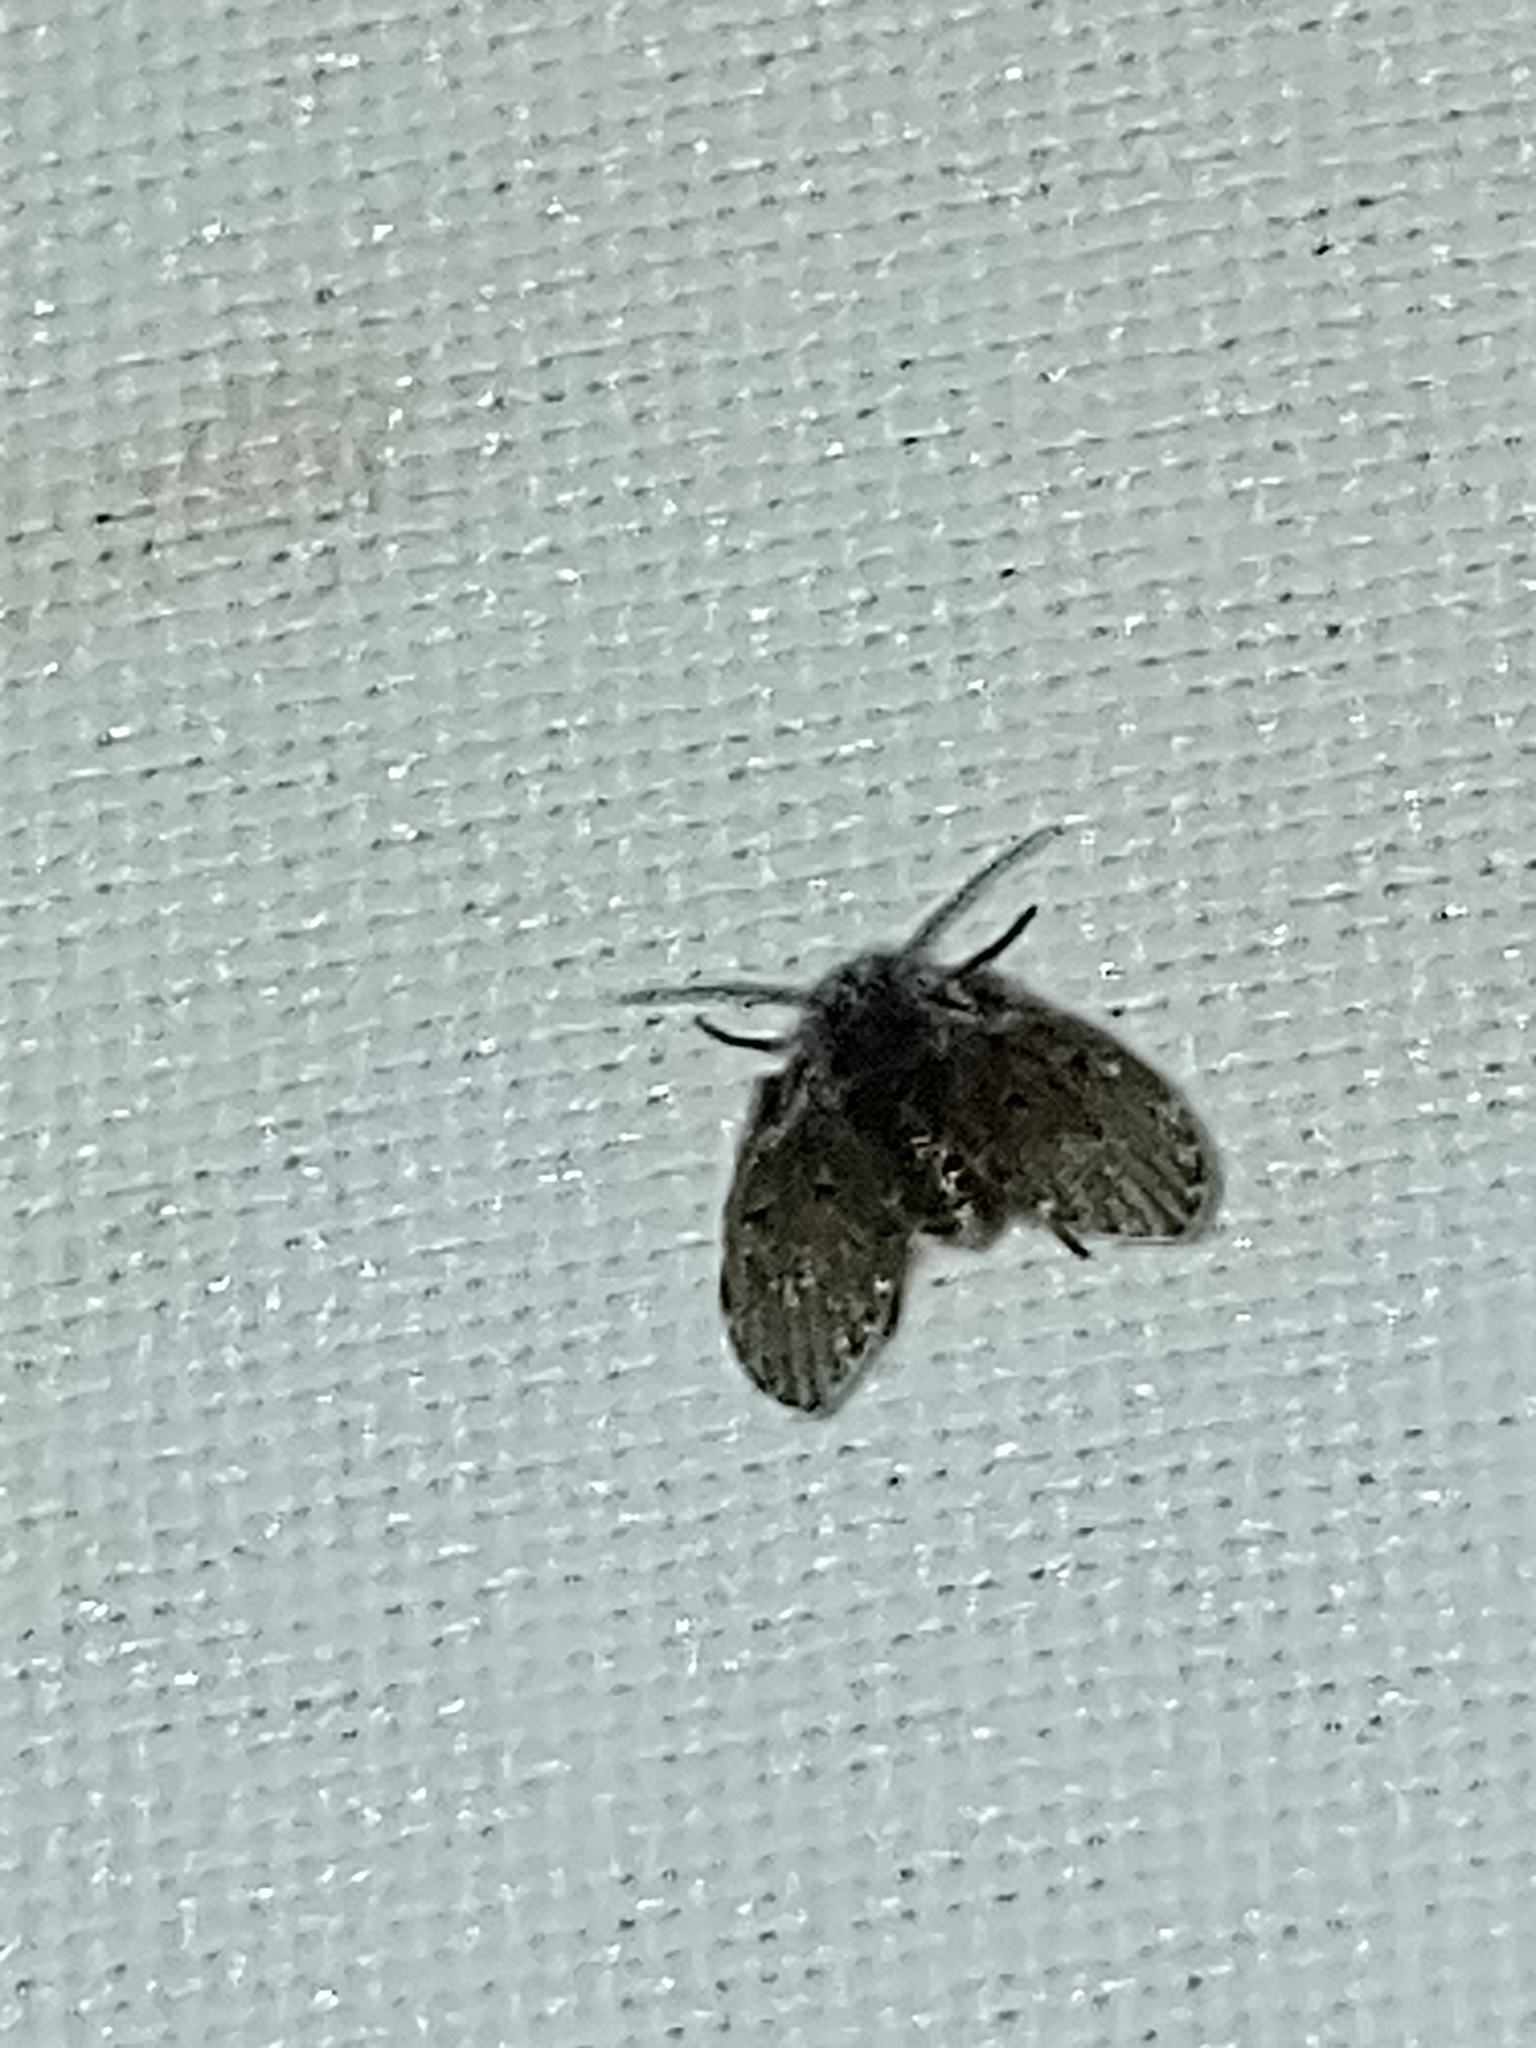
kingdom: Animalia
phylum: Arthropoda
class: Insecta
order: Diptera
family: Psychodidae
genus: Clogmia
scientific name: Clogmia albipunctatus
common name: White-spotted moth fly
